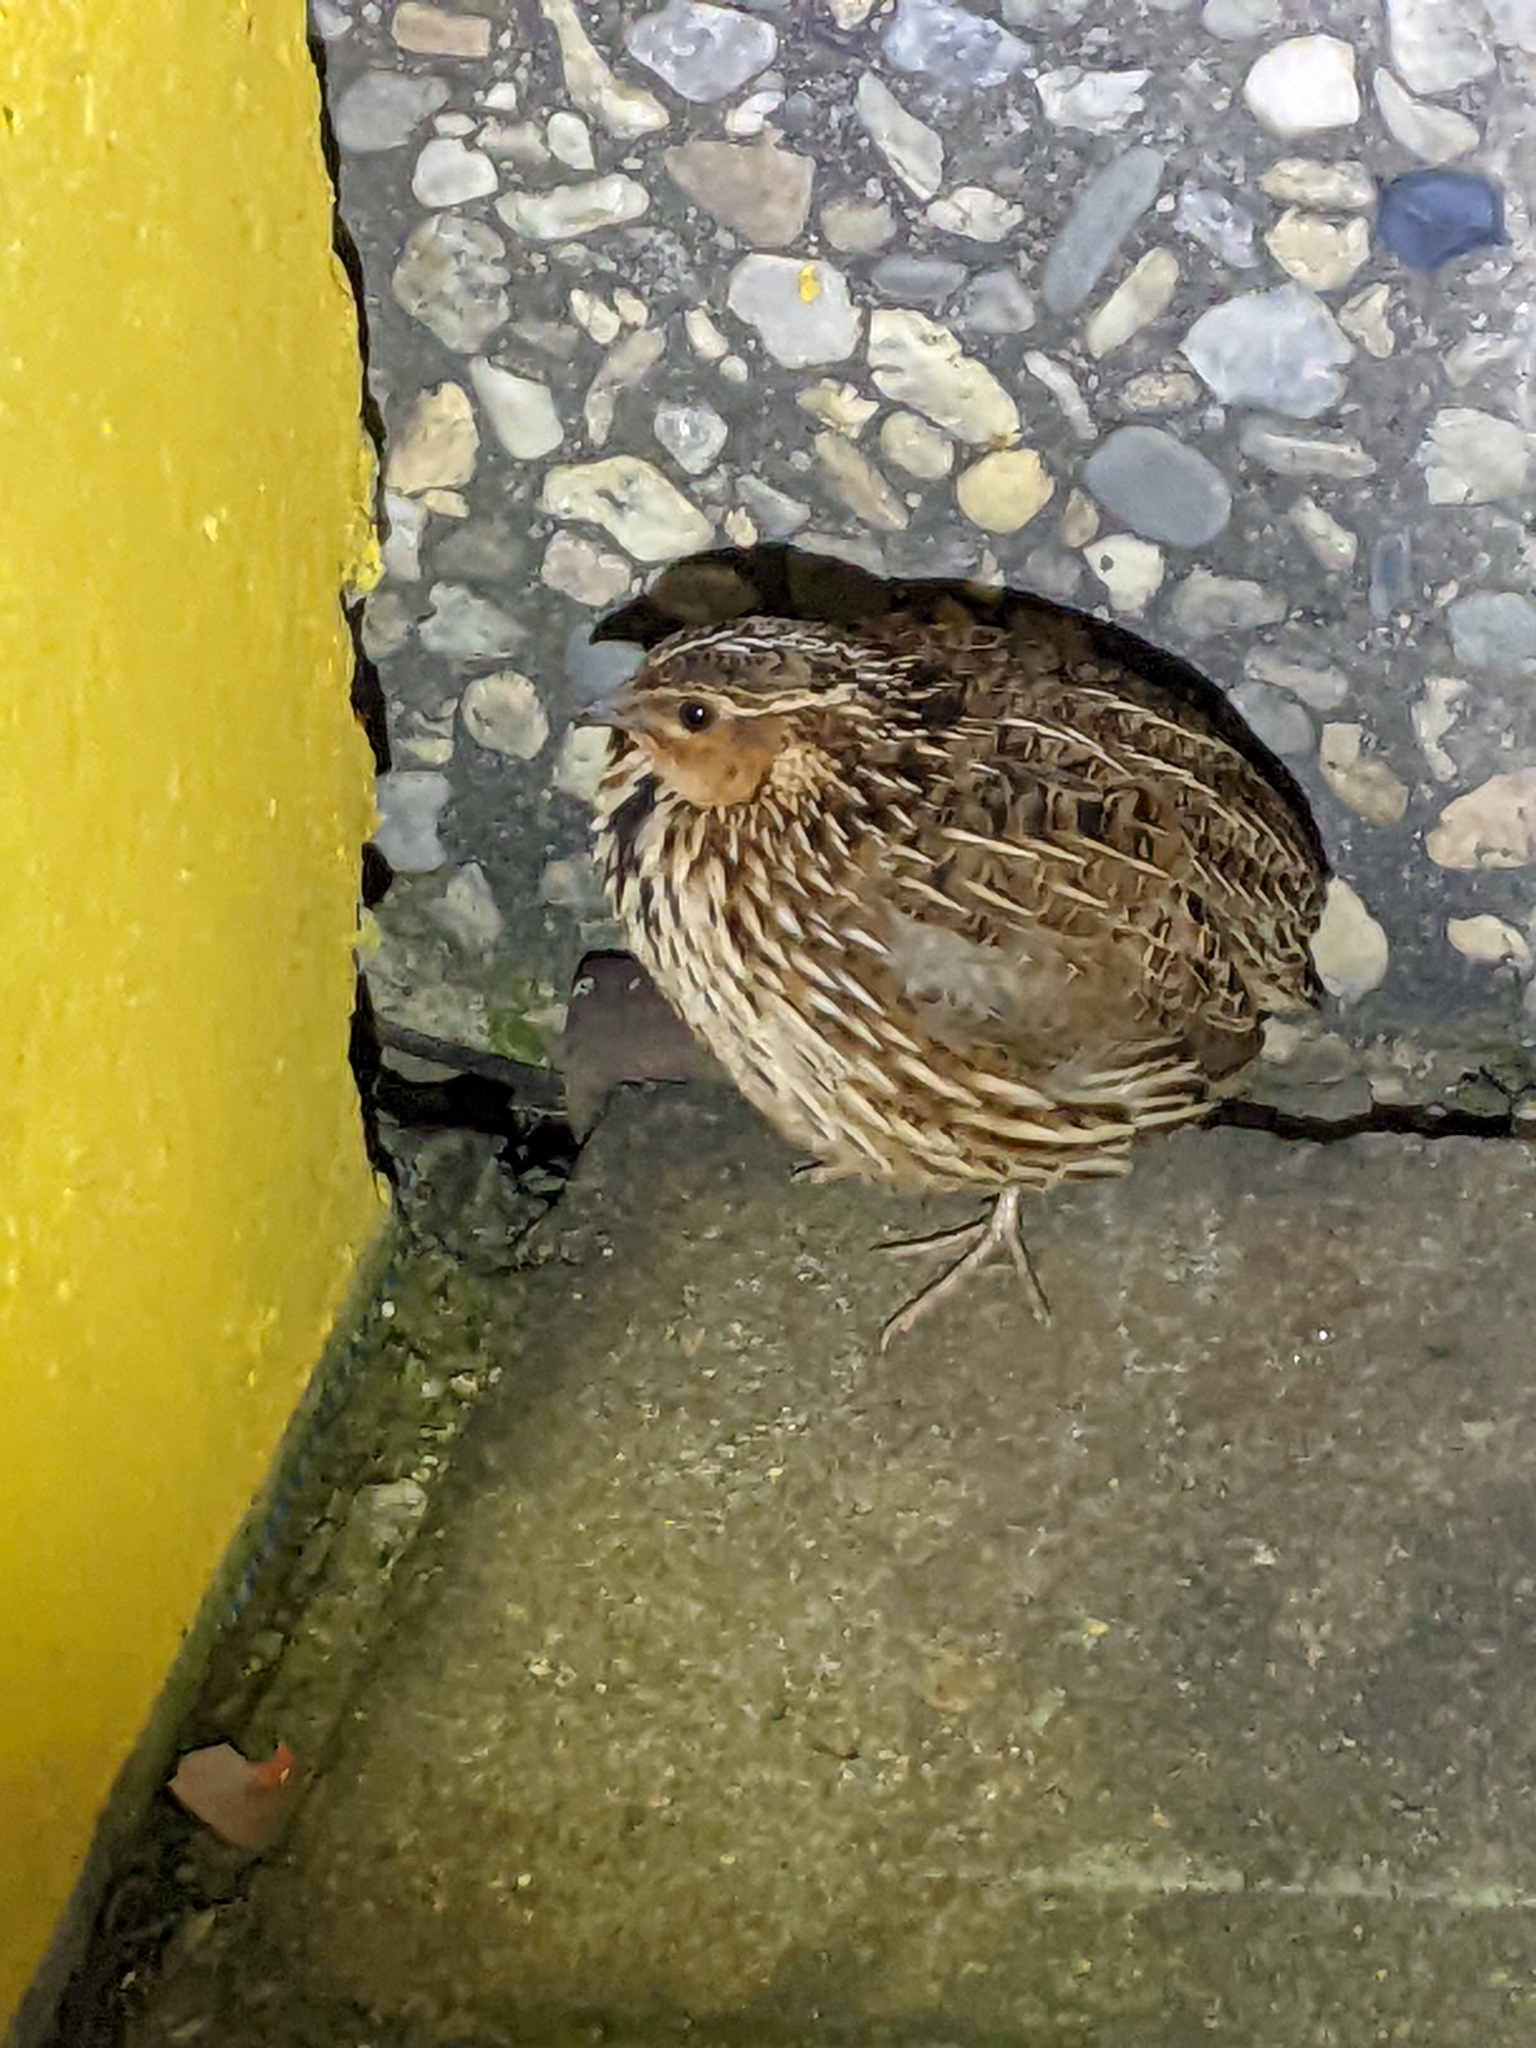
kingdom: Animalia
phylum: Chordata
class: Aves
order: Galliformes
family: Phasianidae
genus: Coturnix
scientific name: Coturnix pectoralis
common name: Stubble quail
